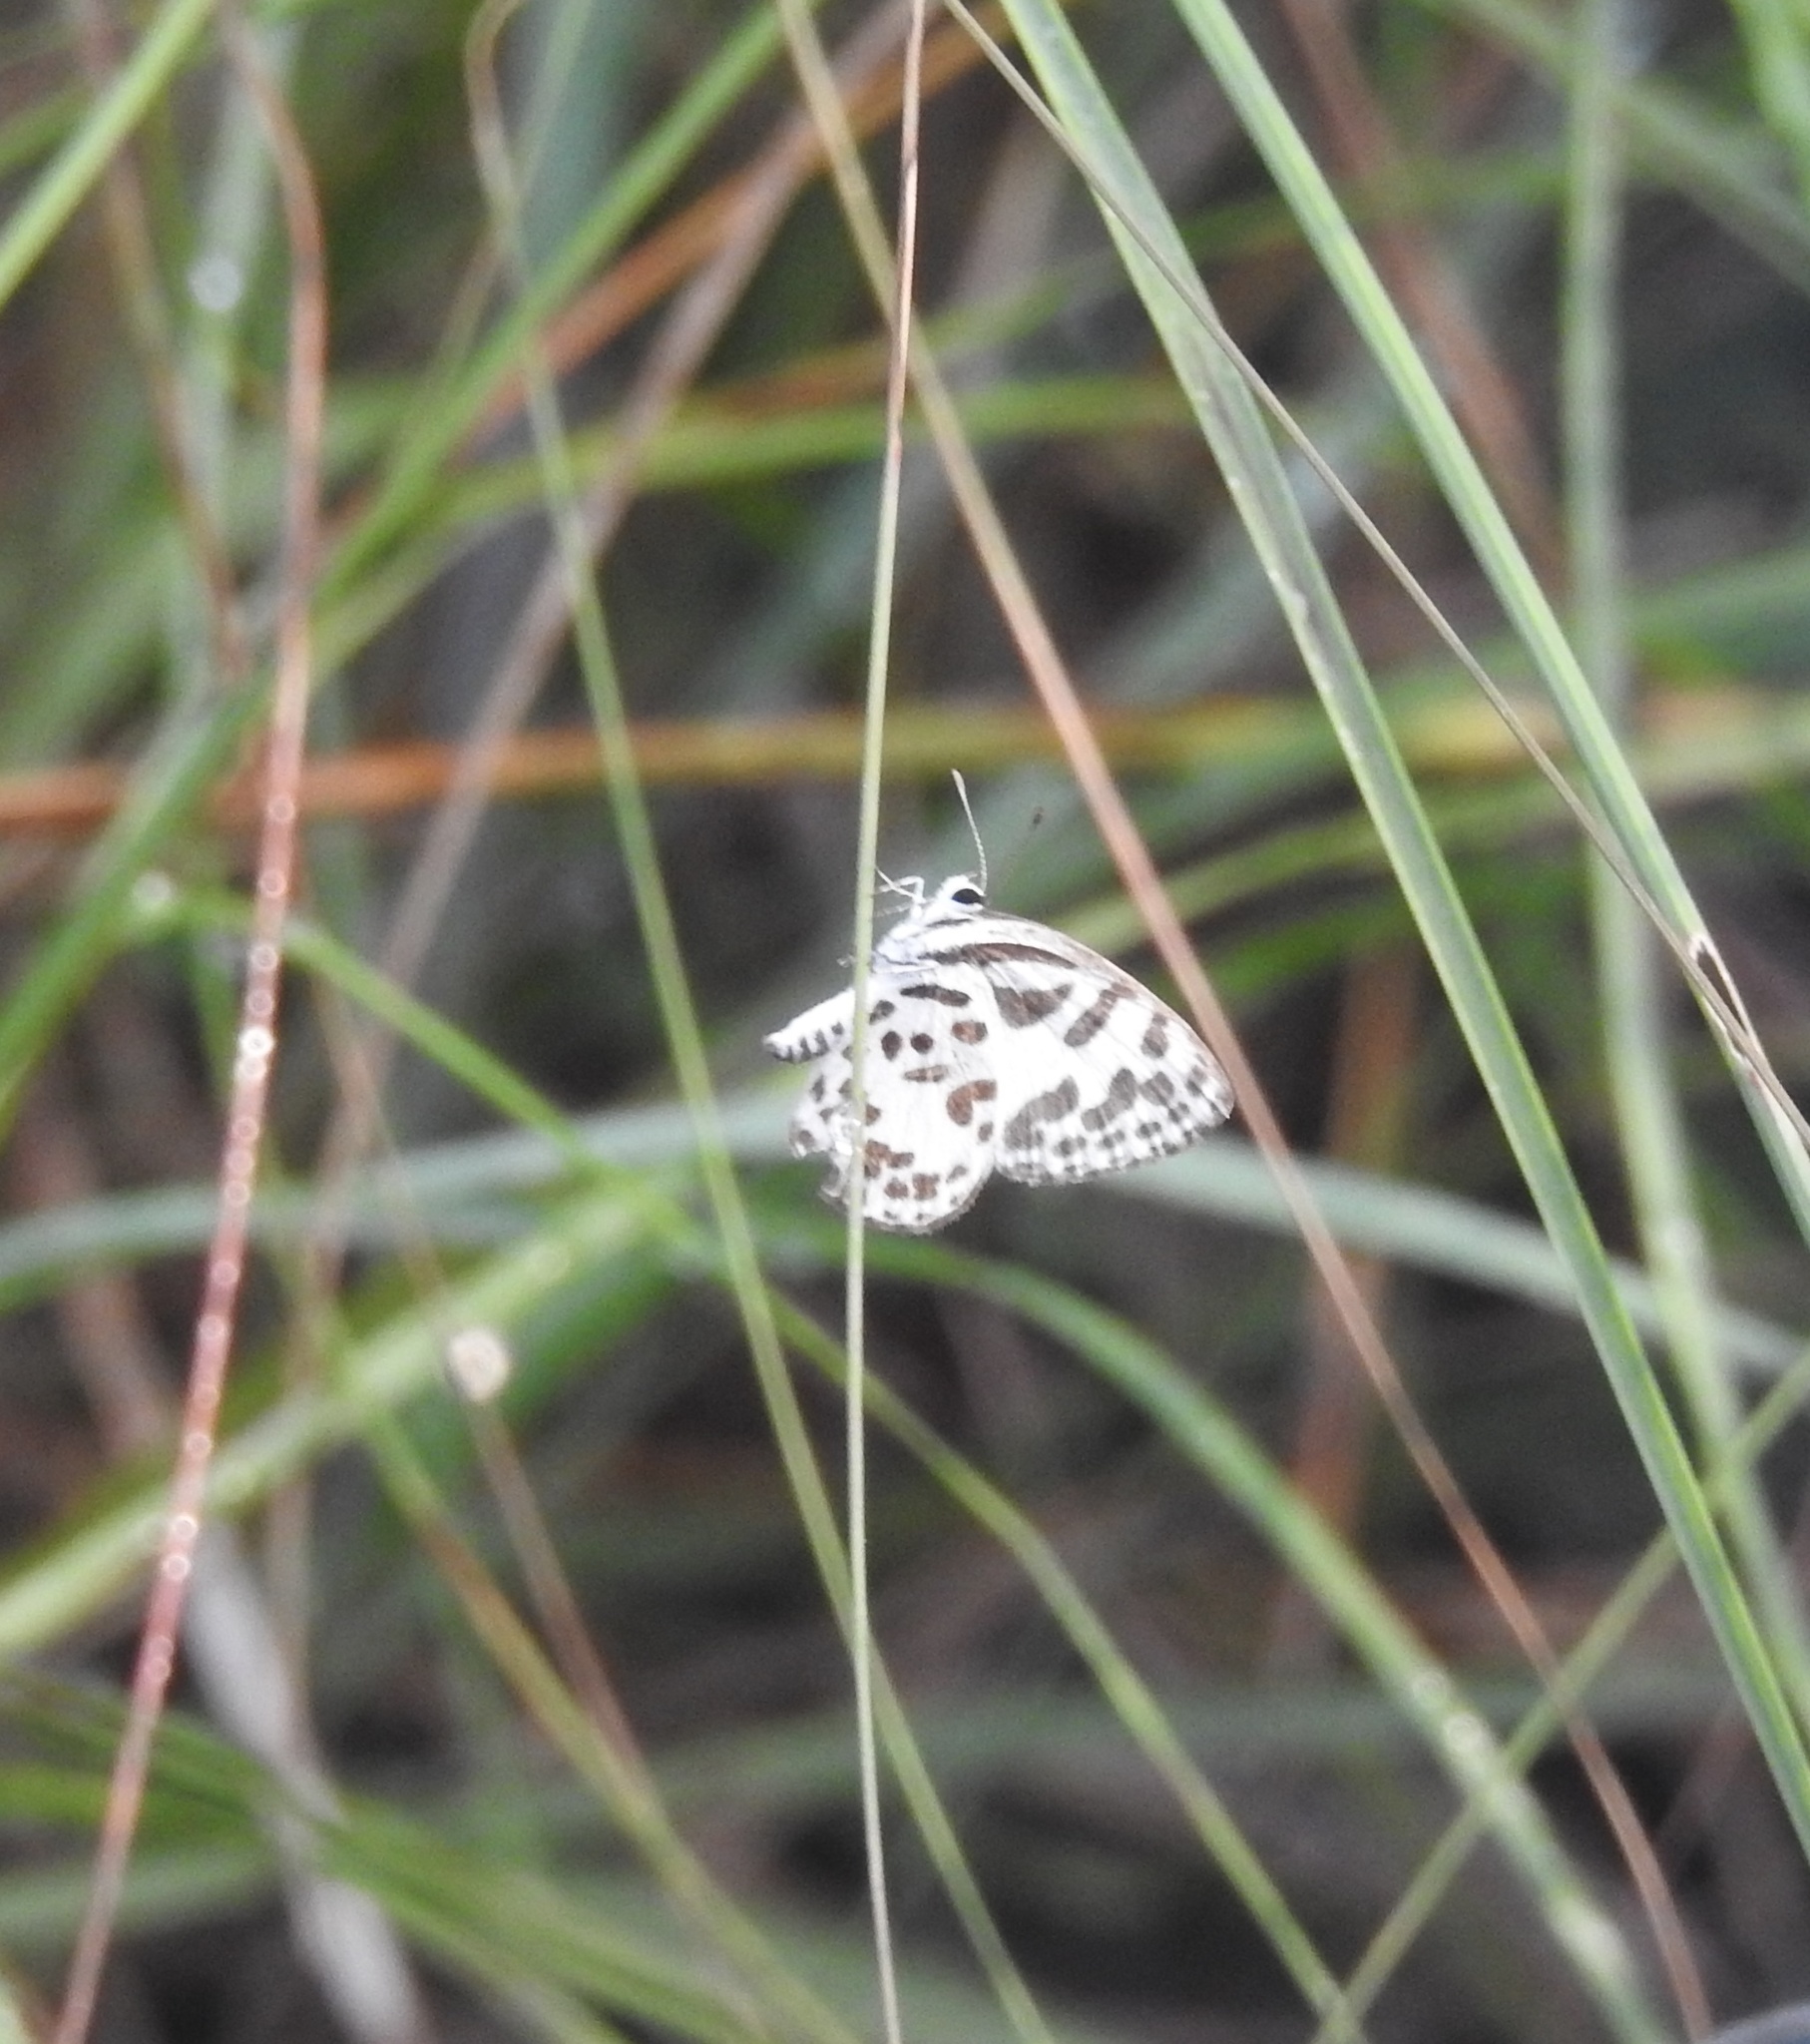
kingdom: Animalia
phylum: Arthropoda
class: Insecta
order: Lepidoptera
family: Lycaenidae
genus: Castalius
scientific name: Castalius rosimon
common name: Common pierrot
